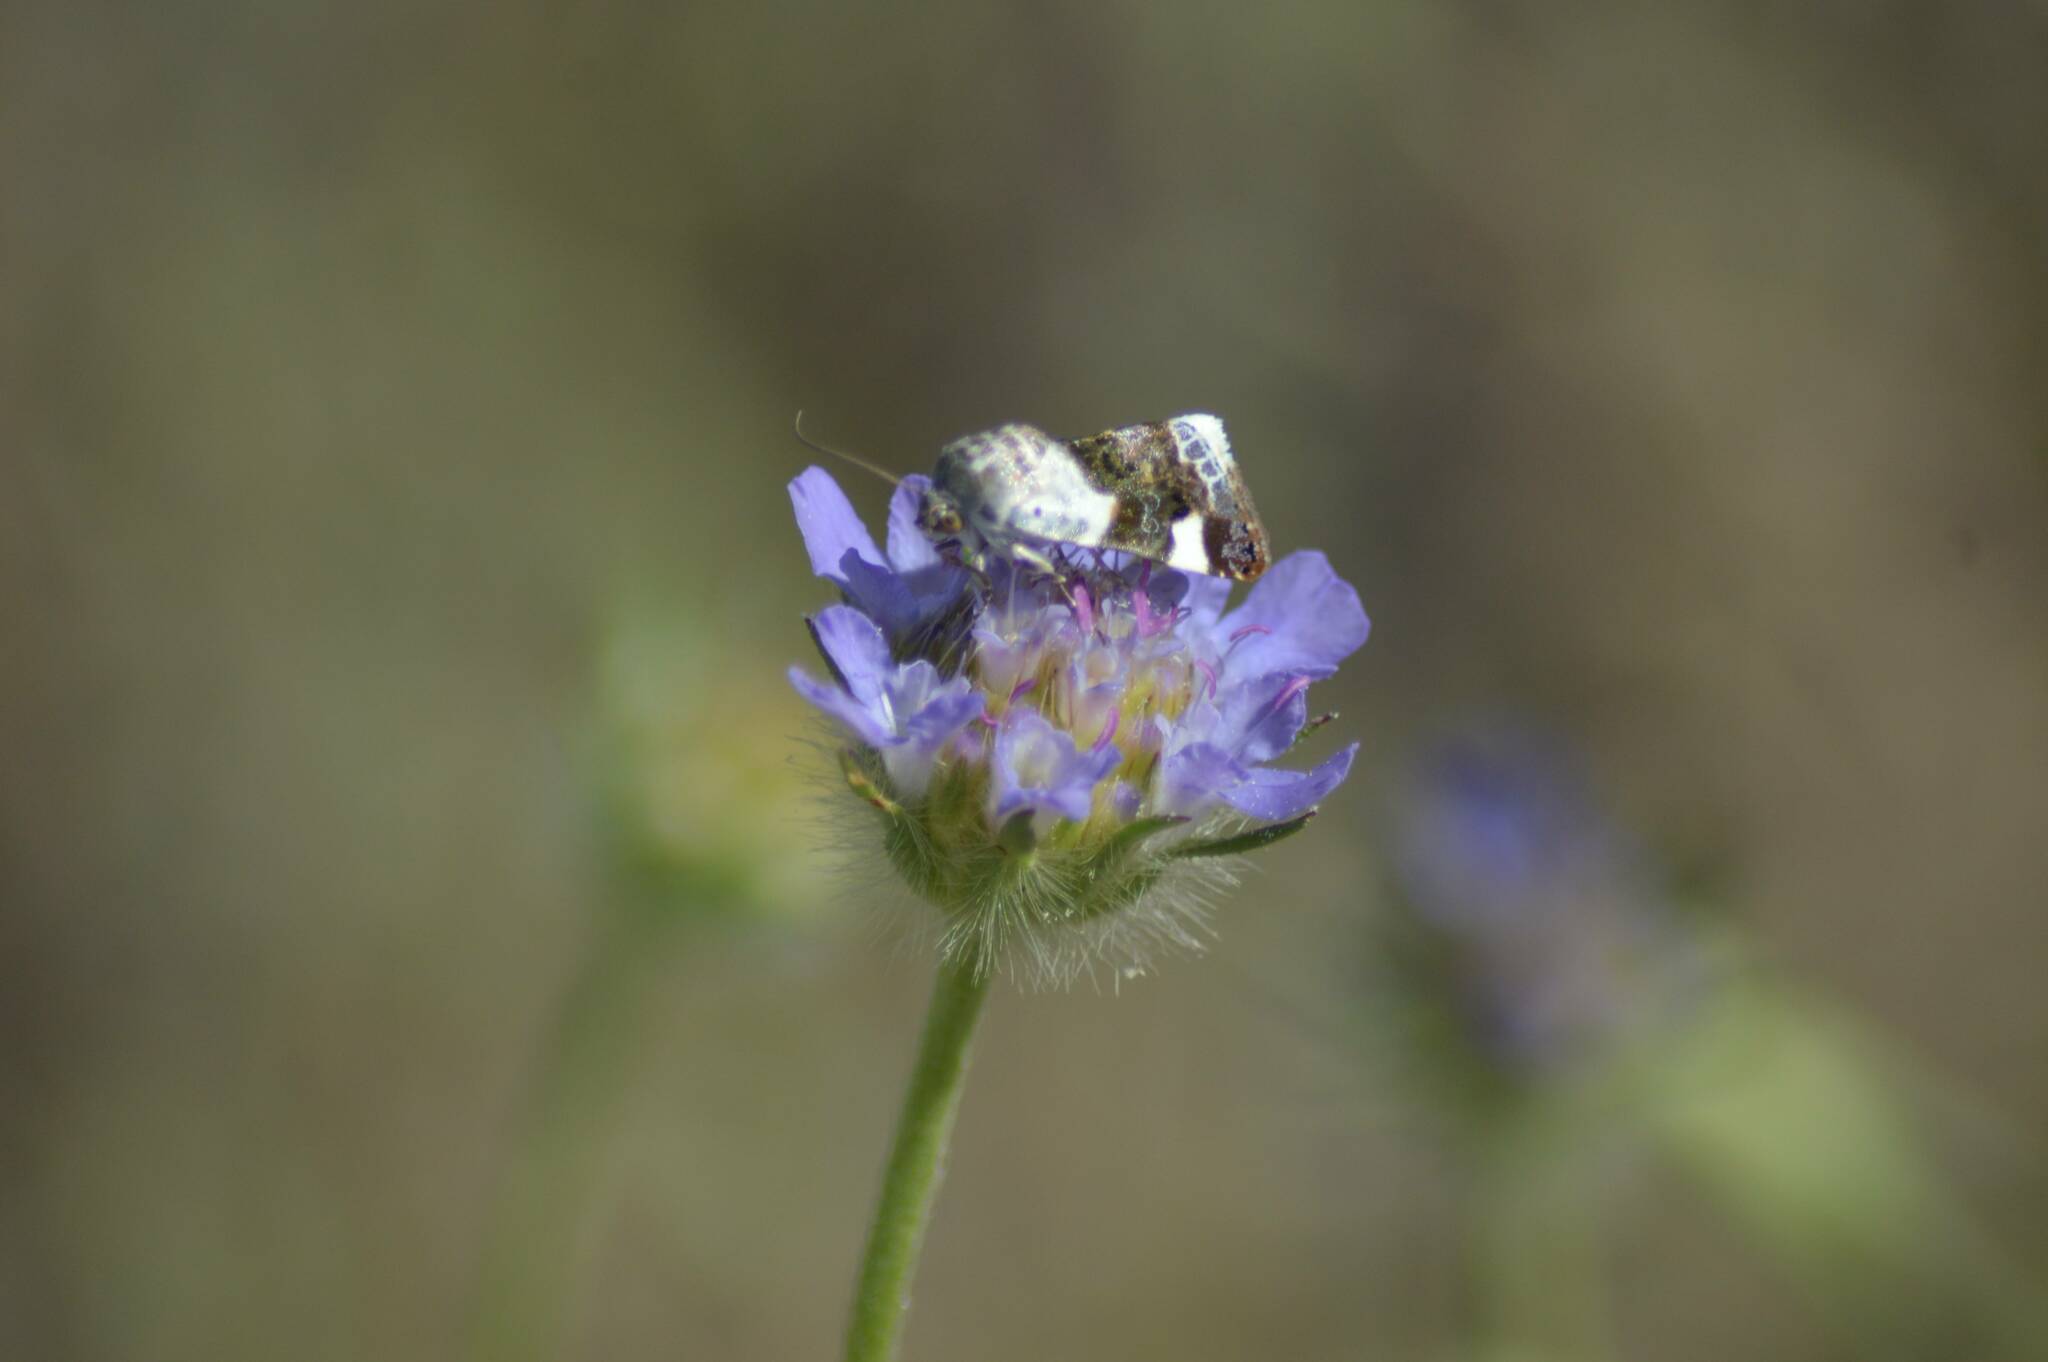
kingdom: Animalia
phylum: Arthropoda
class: Insecta
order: Lepidoptera
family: Noctuidae
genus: Acontia
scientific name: Acontia lucida
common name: Pale shoulder
